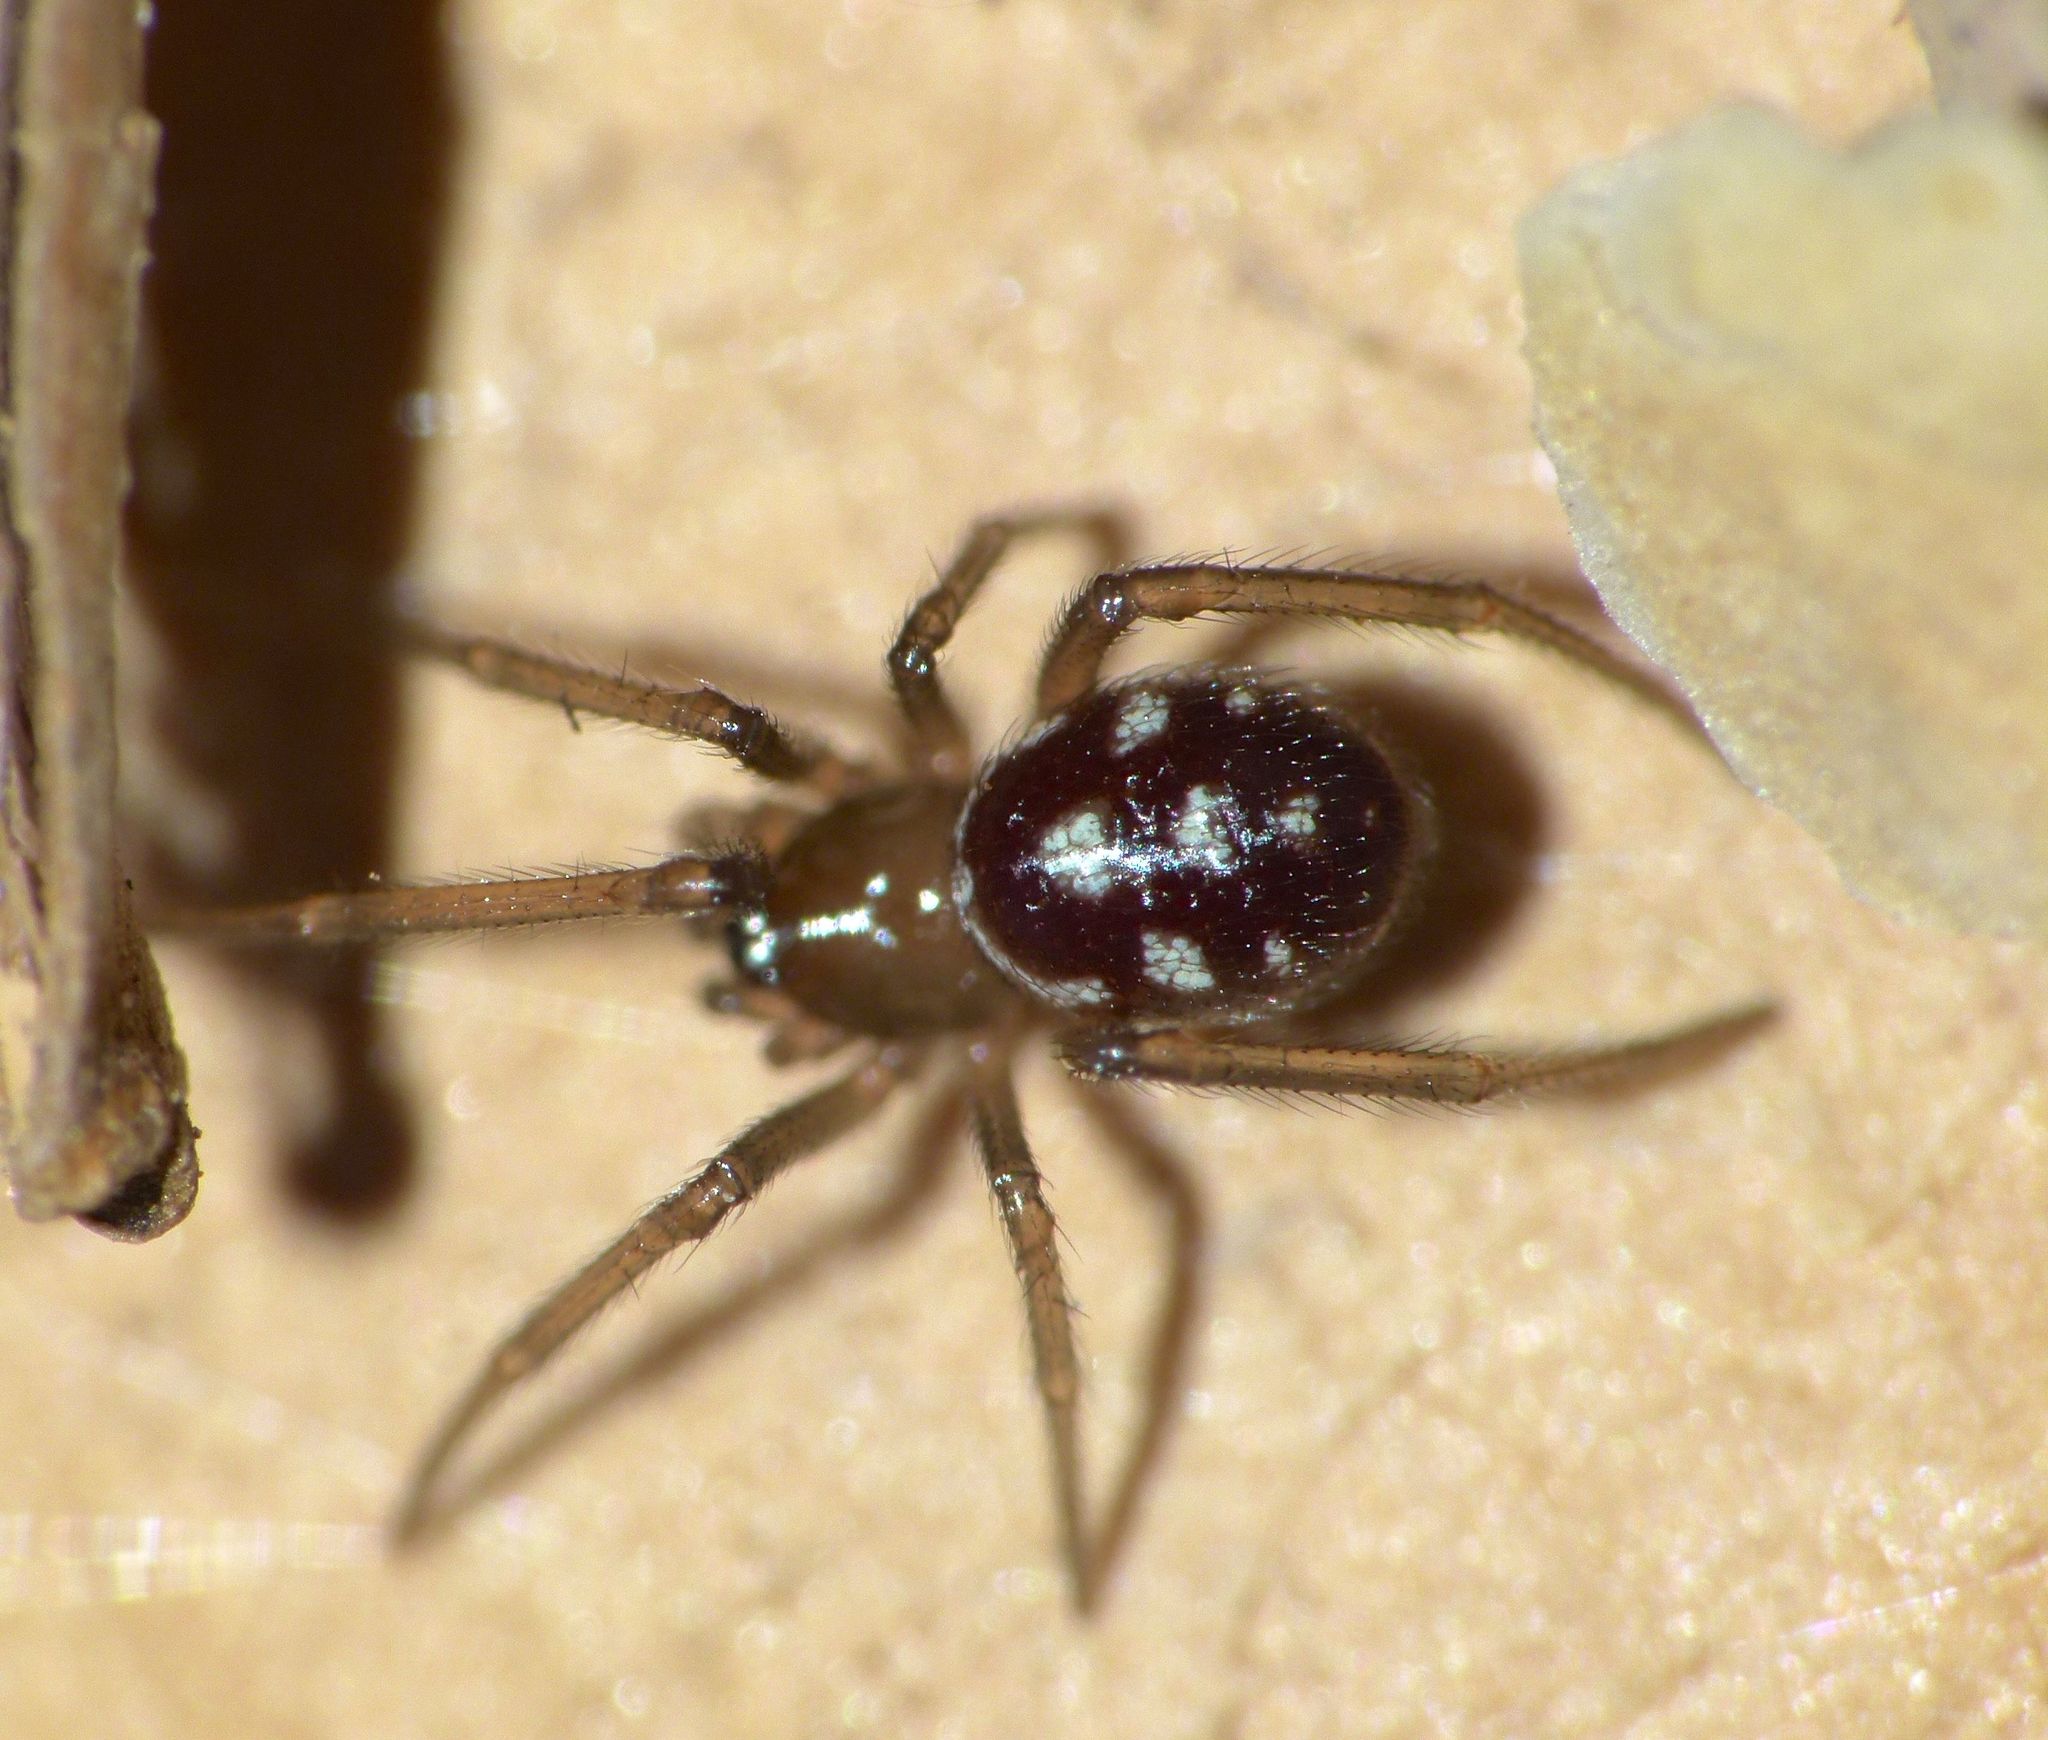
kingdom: Animalia
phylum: Arthropoda
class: Arachnida
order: Araneae
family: Theridiidae
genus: Steatoda
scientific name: Steatoda grossa
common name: False black widow
